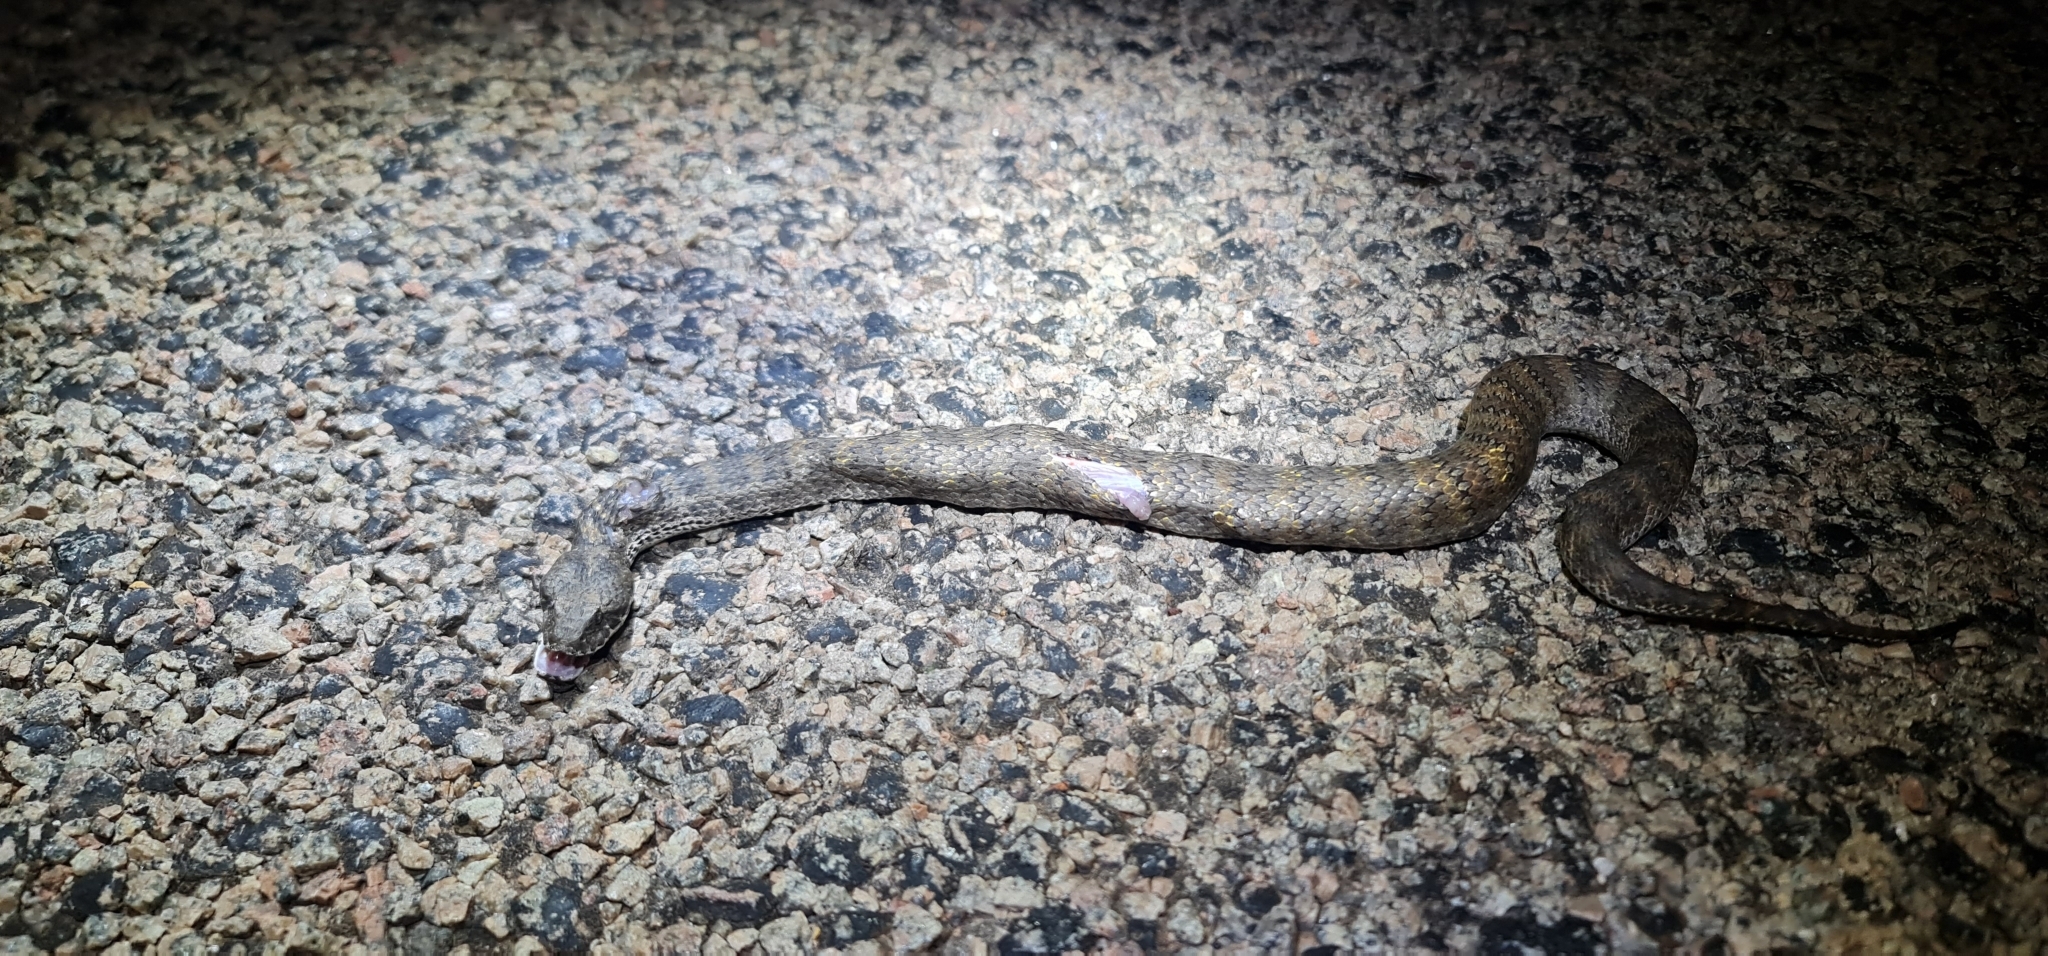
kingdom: Animalia
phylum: Chordata
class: Squamata
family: Elapidae
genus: Acanthophis
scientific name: Acanthophis hawkei
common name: Barkly tableland death adder
